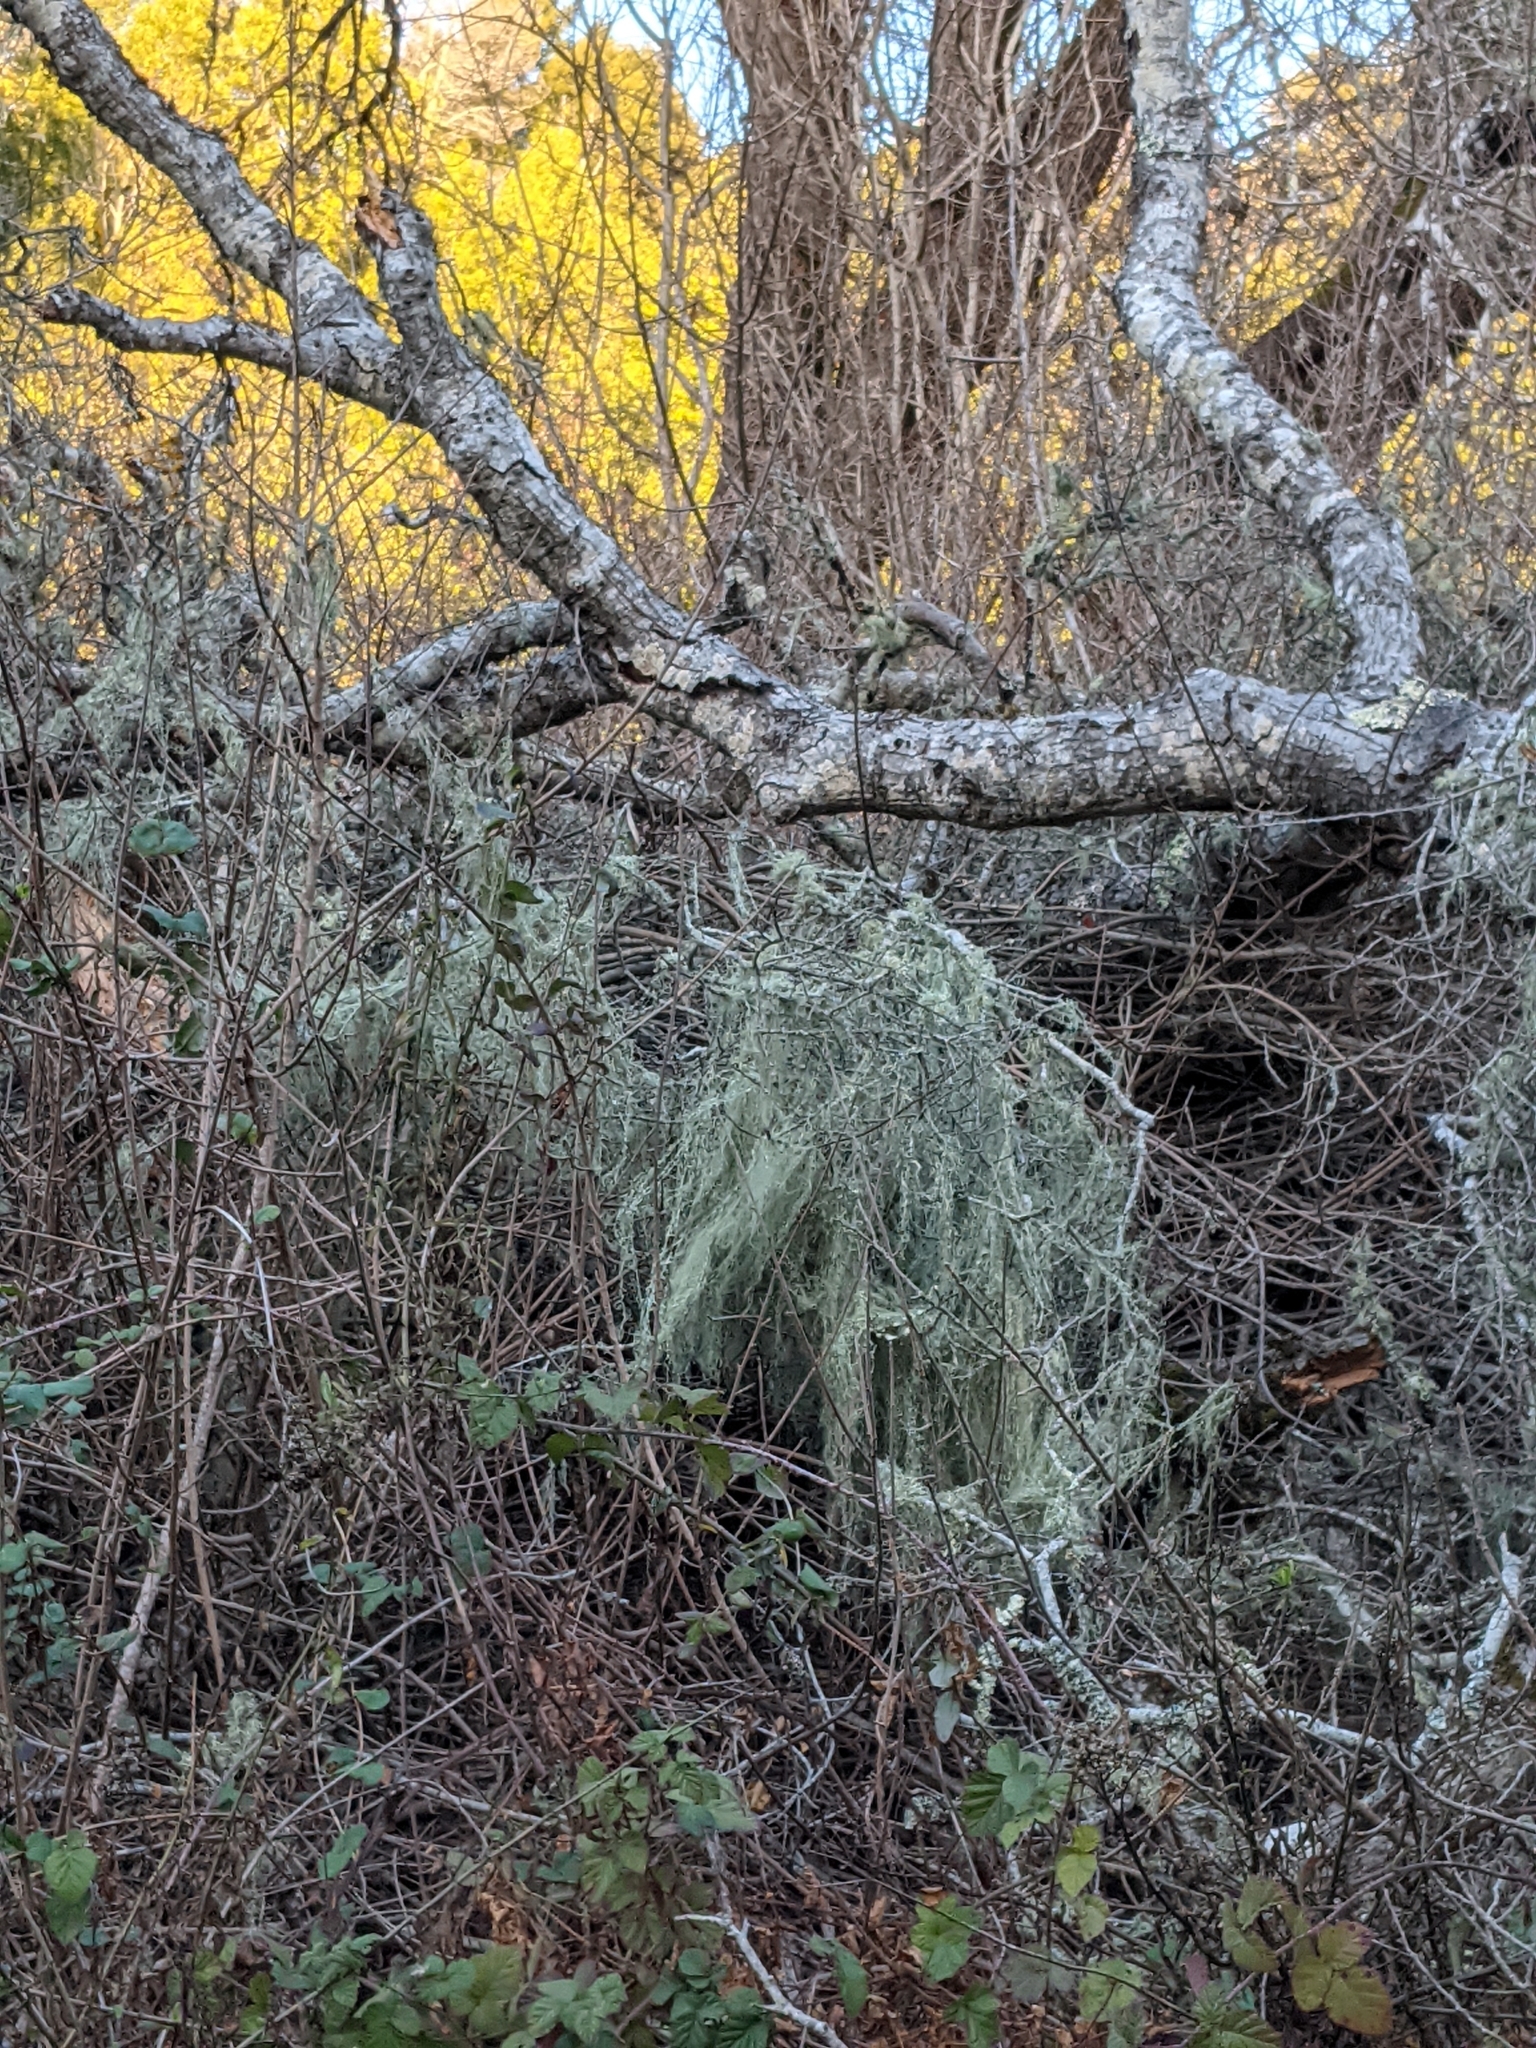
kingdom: Fungi
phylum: Ascomycota
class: Lecanoromycetes
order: Lecanorales
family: Ramalinaceae
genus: Ramalina
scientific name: Ramalina menziesii
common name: Lace lichen
